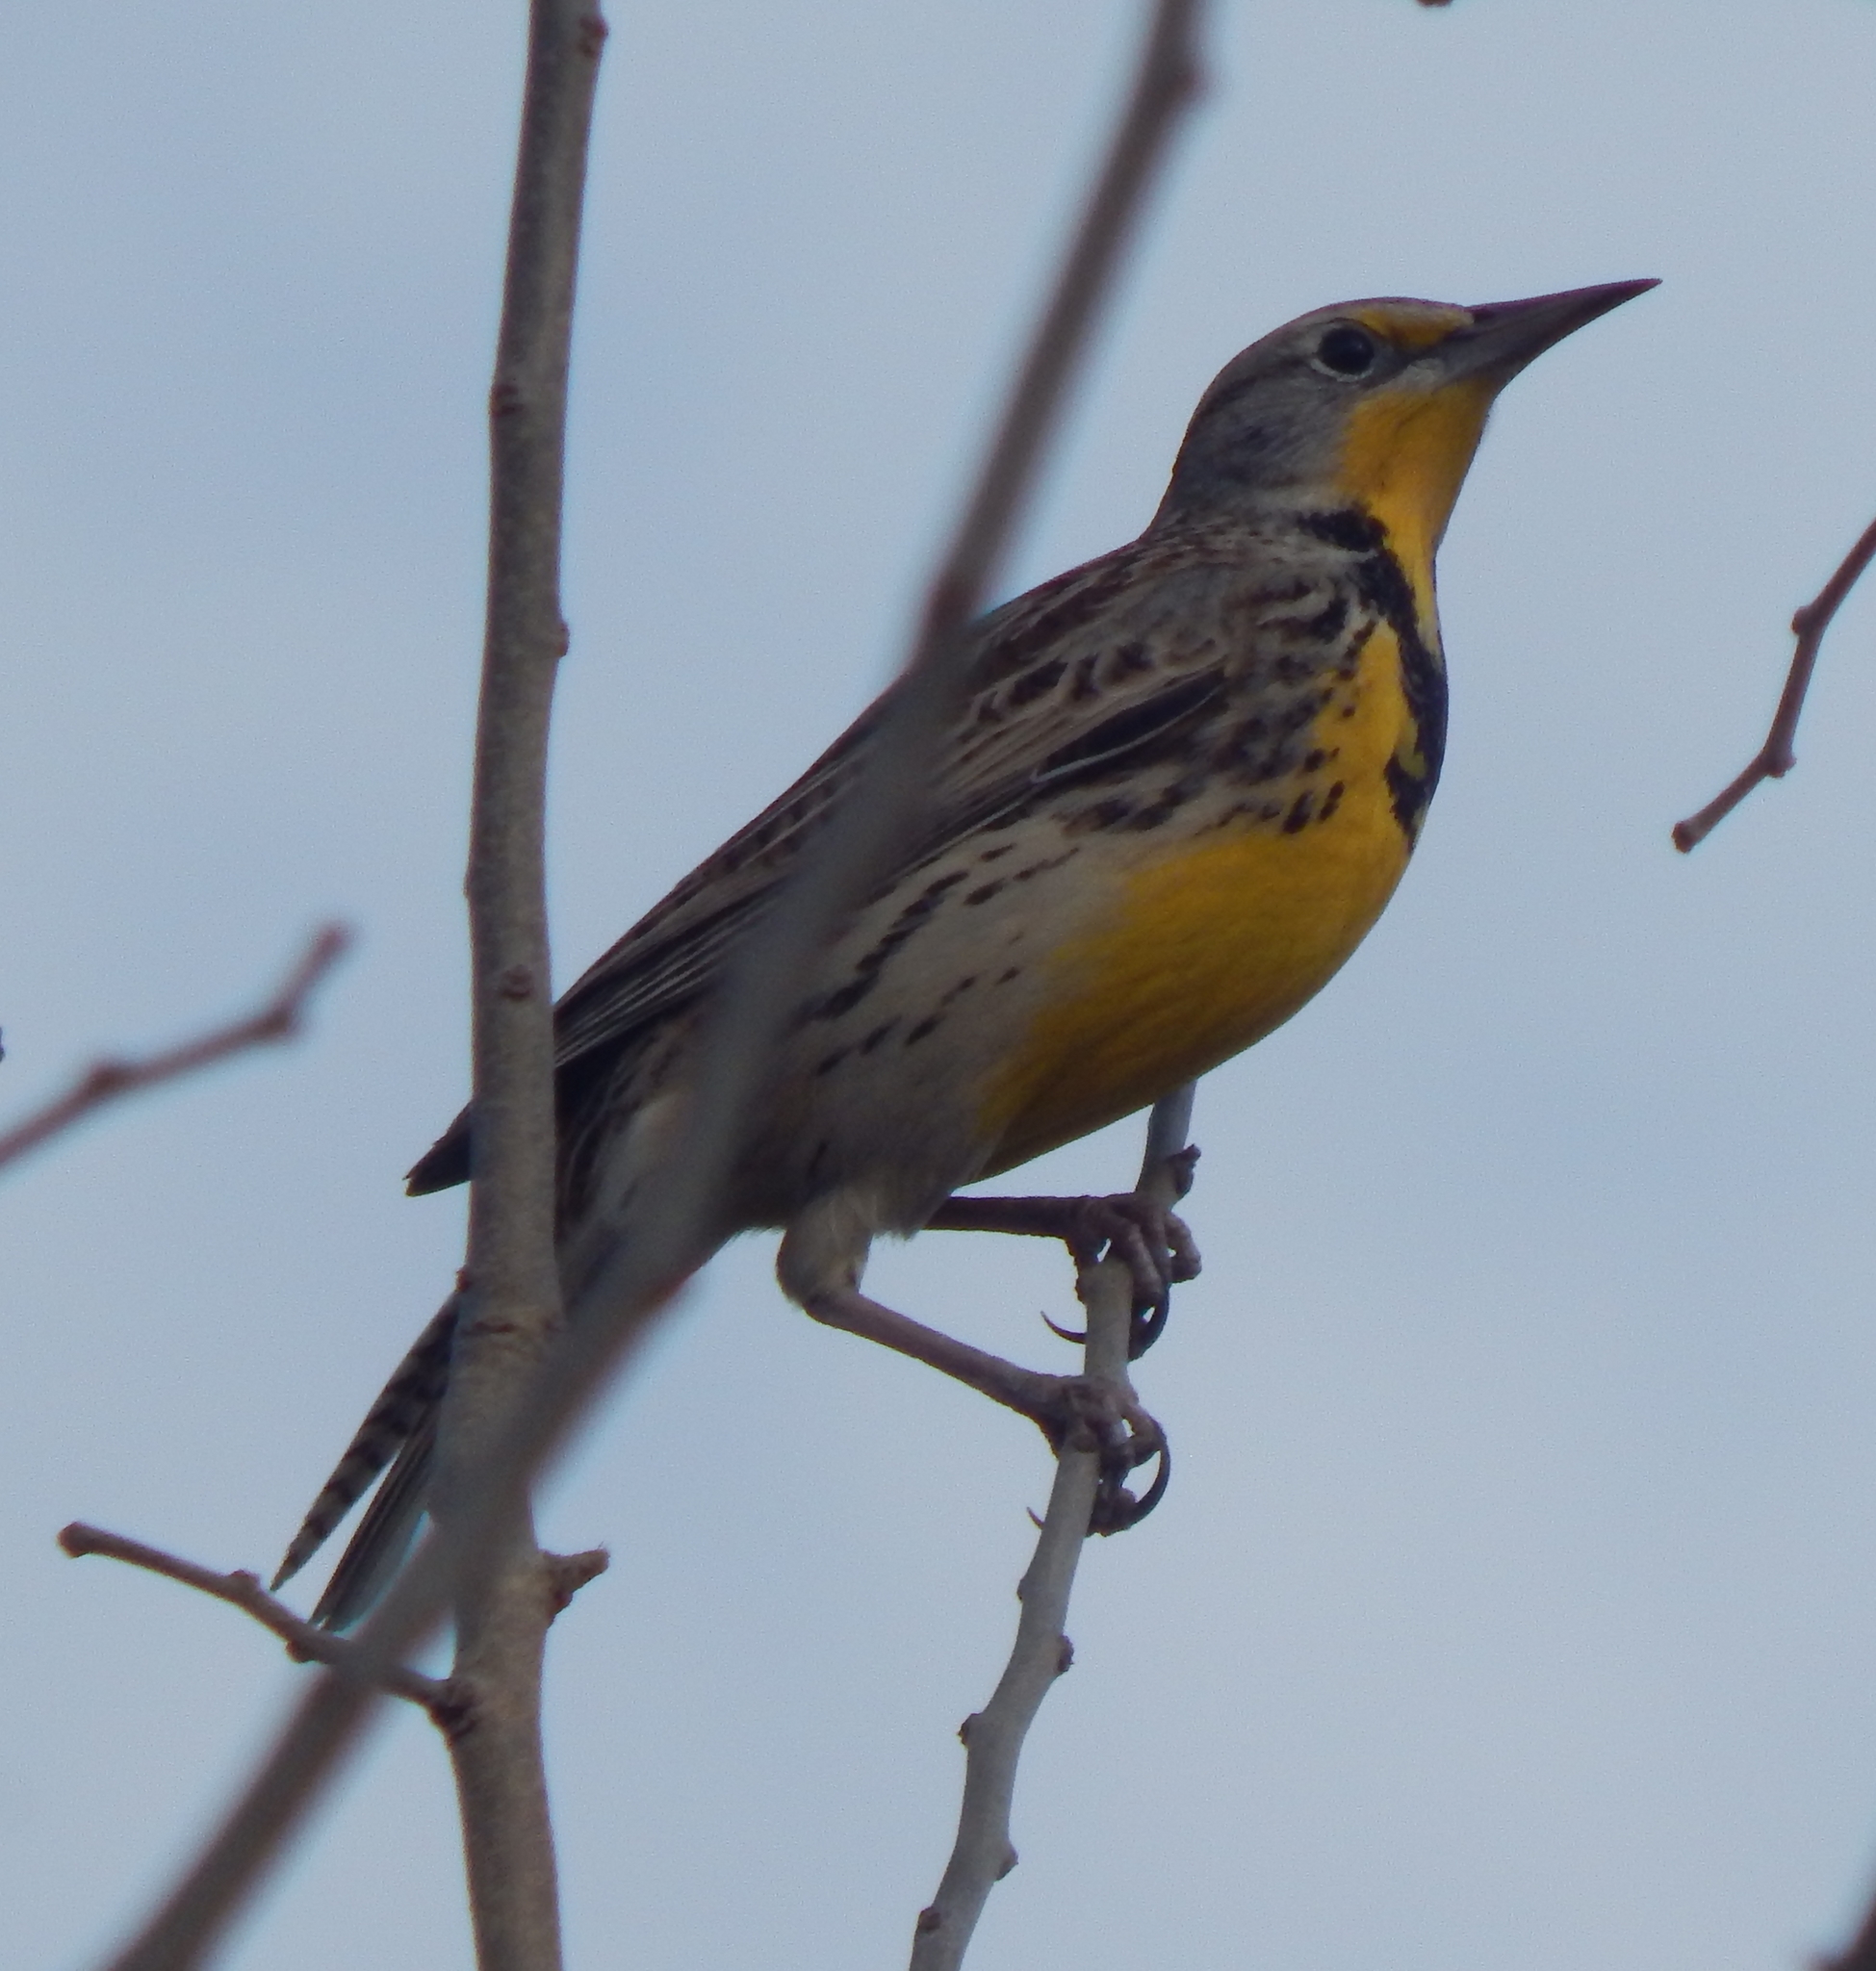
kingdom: Animalia
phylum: Chordata
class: Aves
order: Passeriformes
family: Icteridae
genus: Sturnella
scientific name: Sturnella neglecta
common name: Western meadowlark
